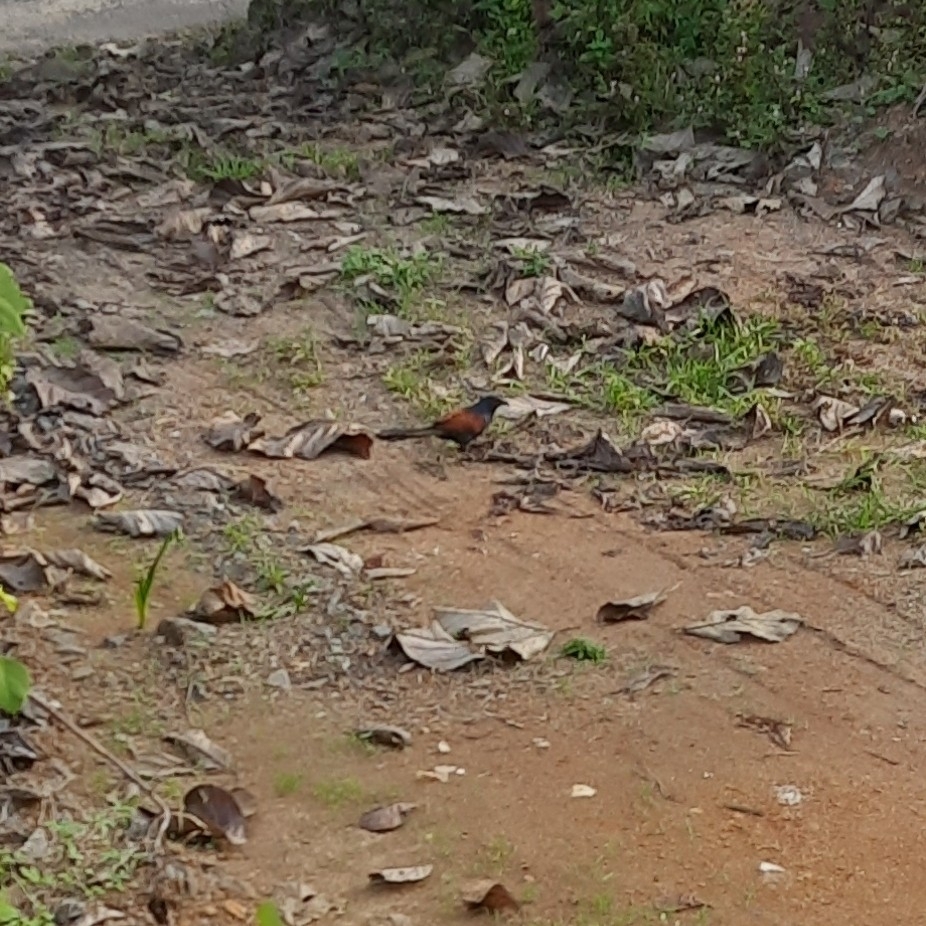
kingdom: Animalia
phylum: Chordata
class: Aves
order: Cuculiformes
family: Cuculidae
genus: Centropus
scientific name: Centropus sinensis
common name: Greater coucal
